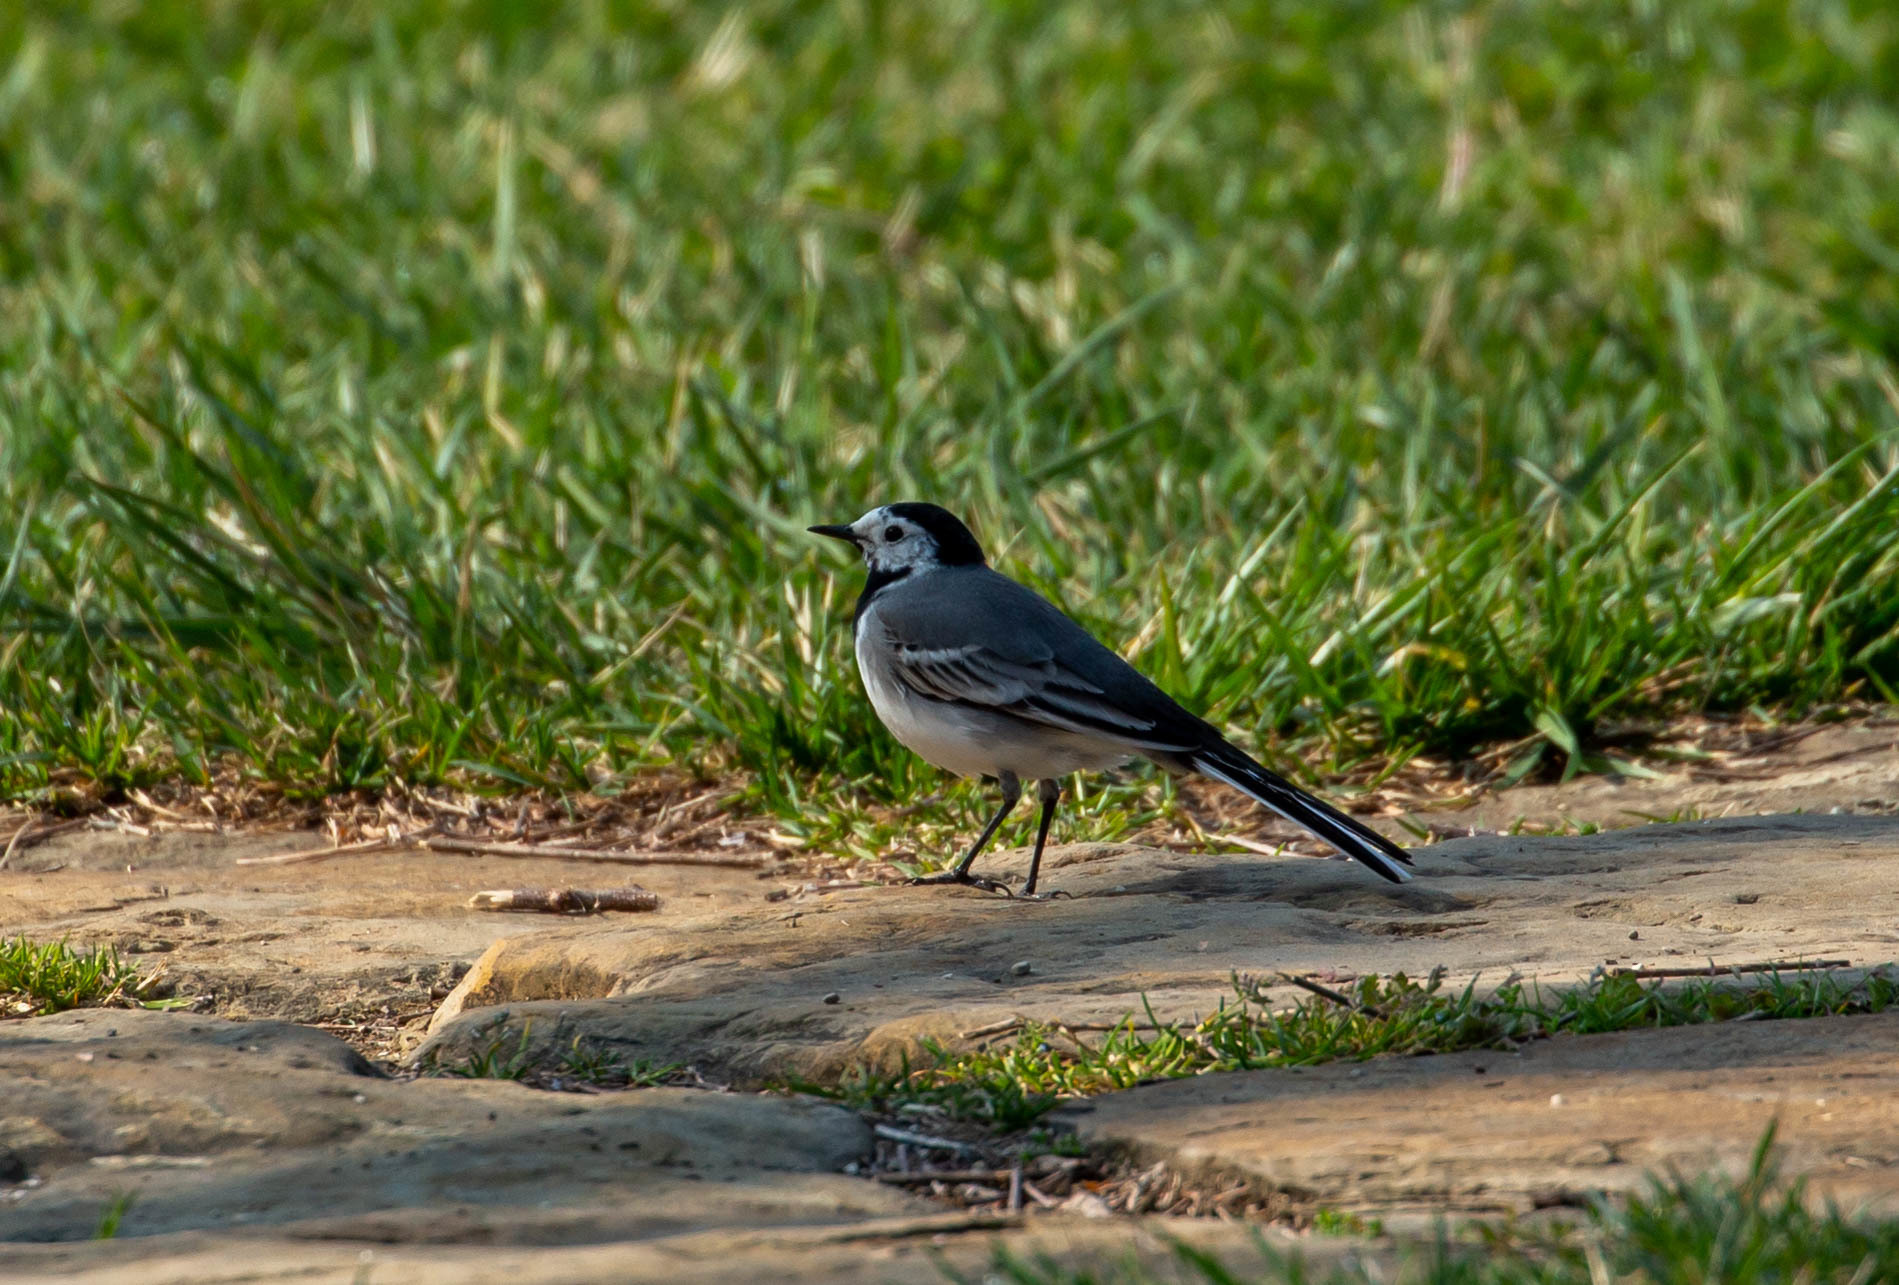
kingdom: Animalia
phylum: Chordata
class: Aves
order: Passeriformes
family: Motacillidae
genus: Motacilla
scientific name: Motacilla alba
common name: White wagtail
